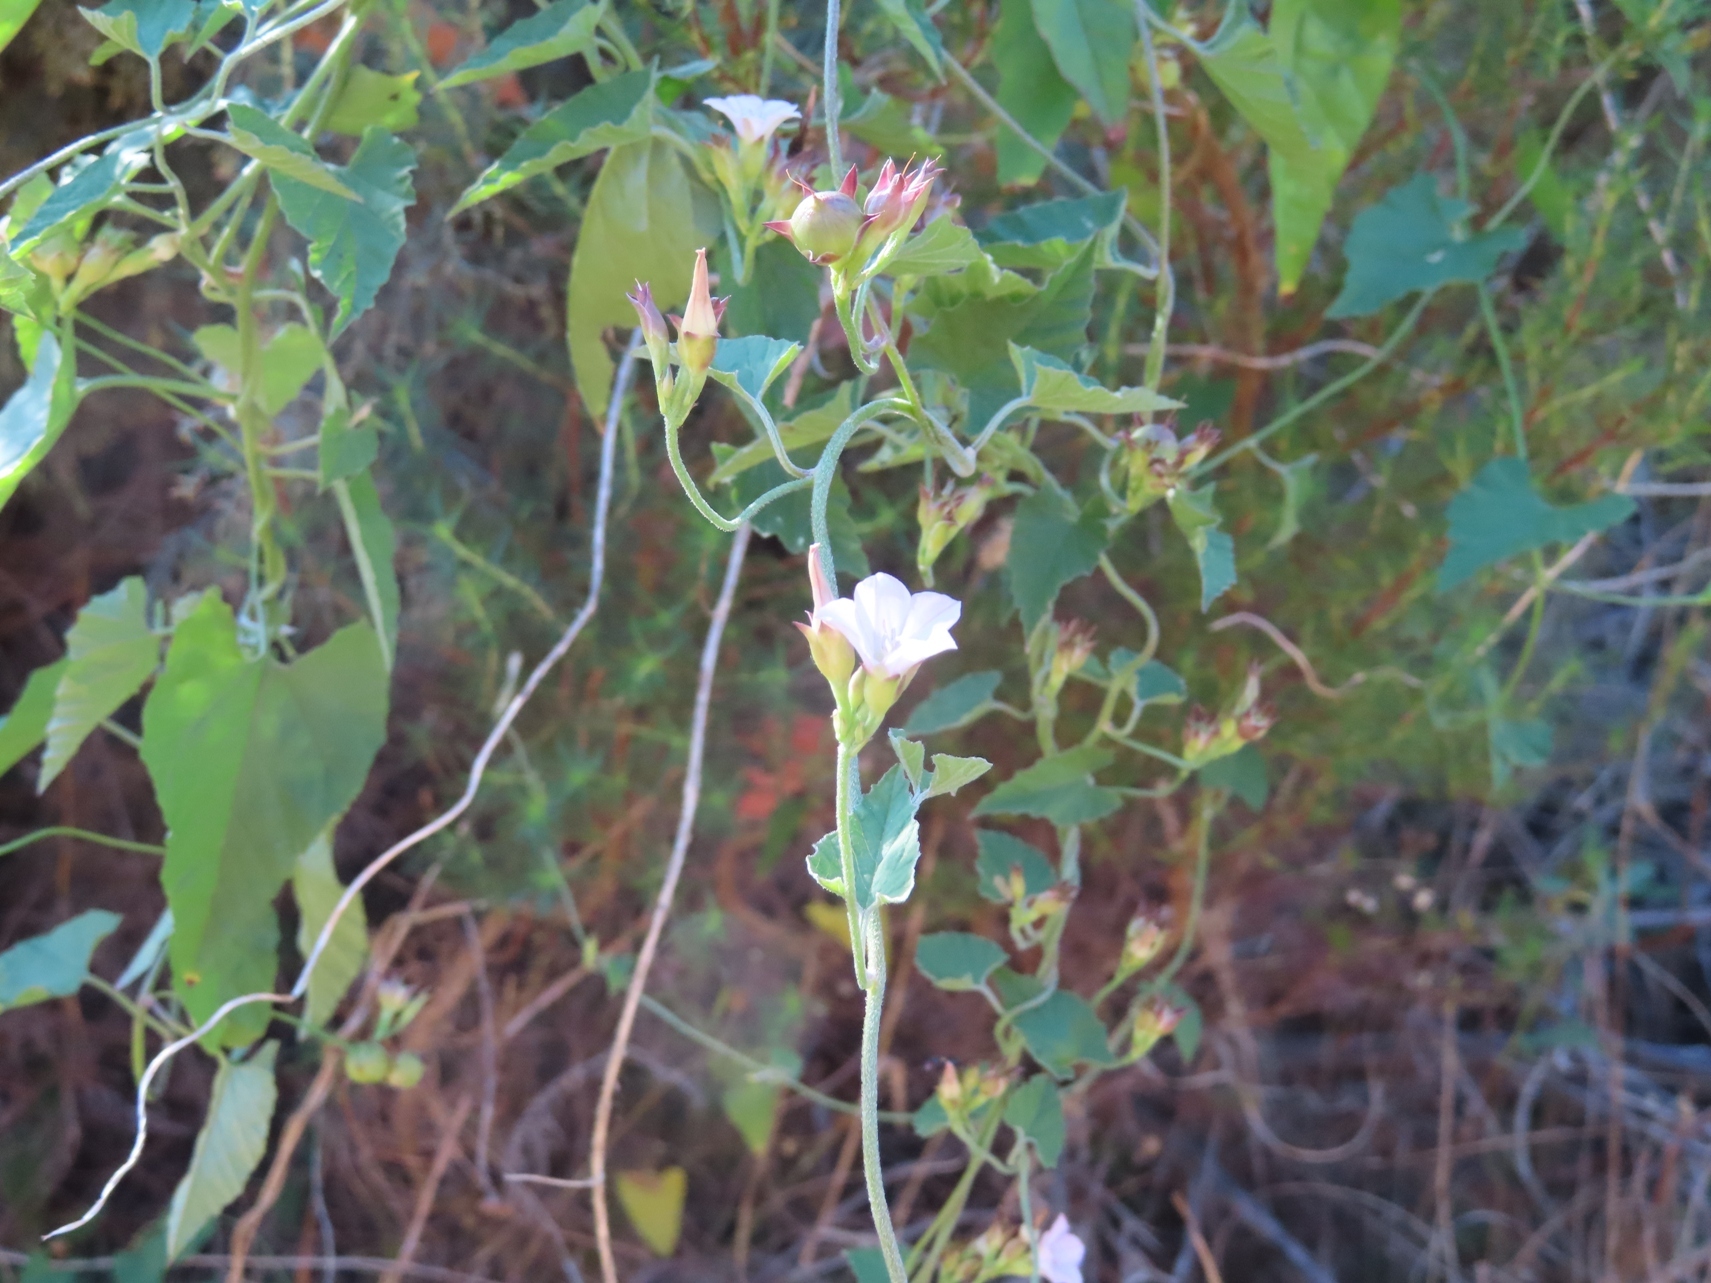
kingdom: Plantae
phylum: Tracheophyta
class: Magnoliopsida
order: Solanales
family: Convolvulaceae
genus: Convolvulus
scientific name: Convolvulus farinosus
